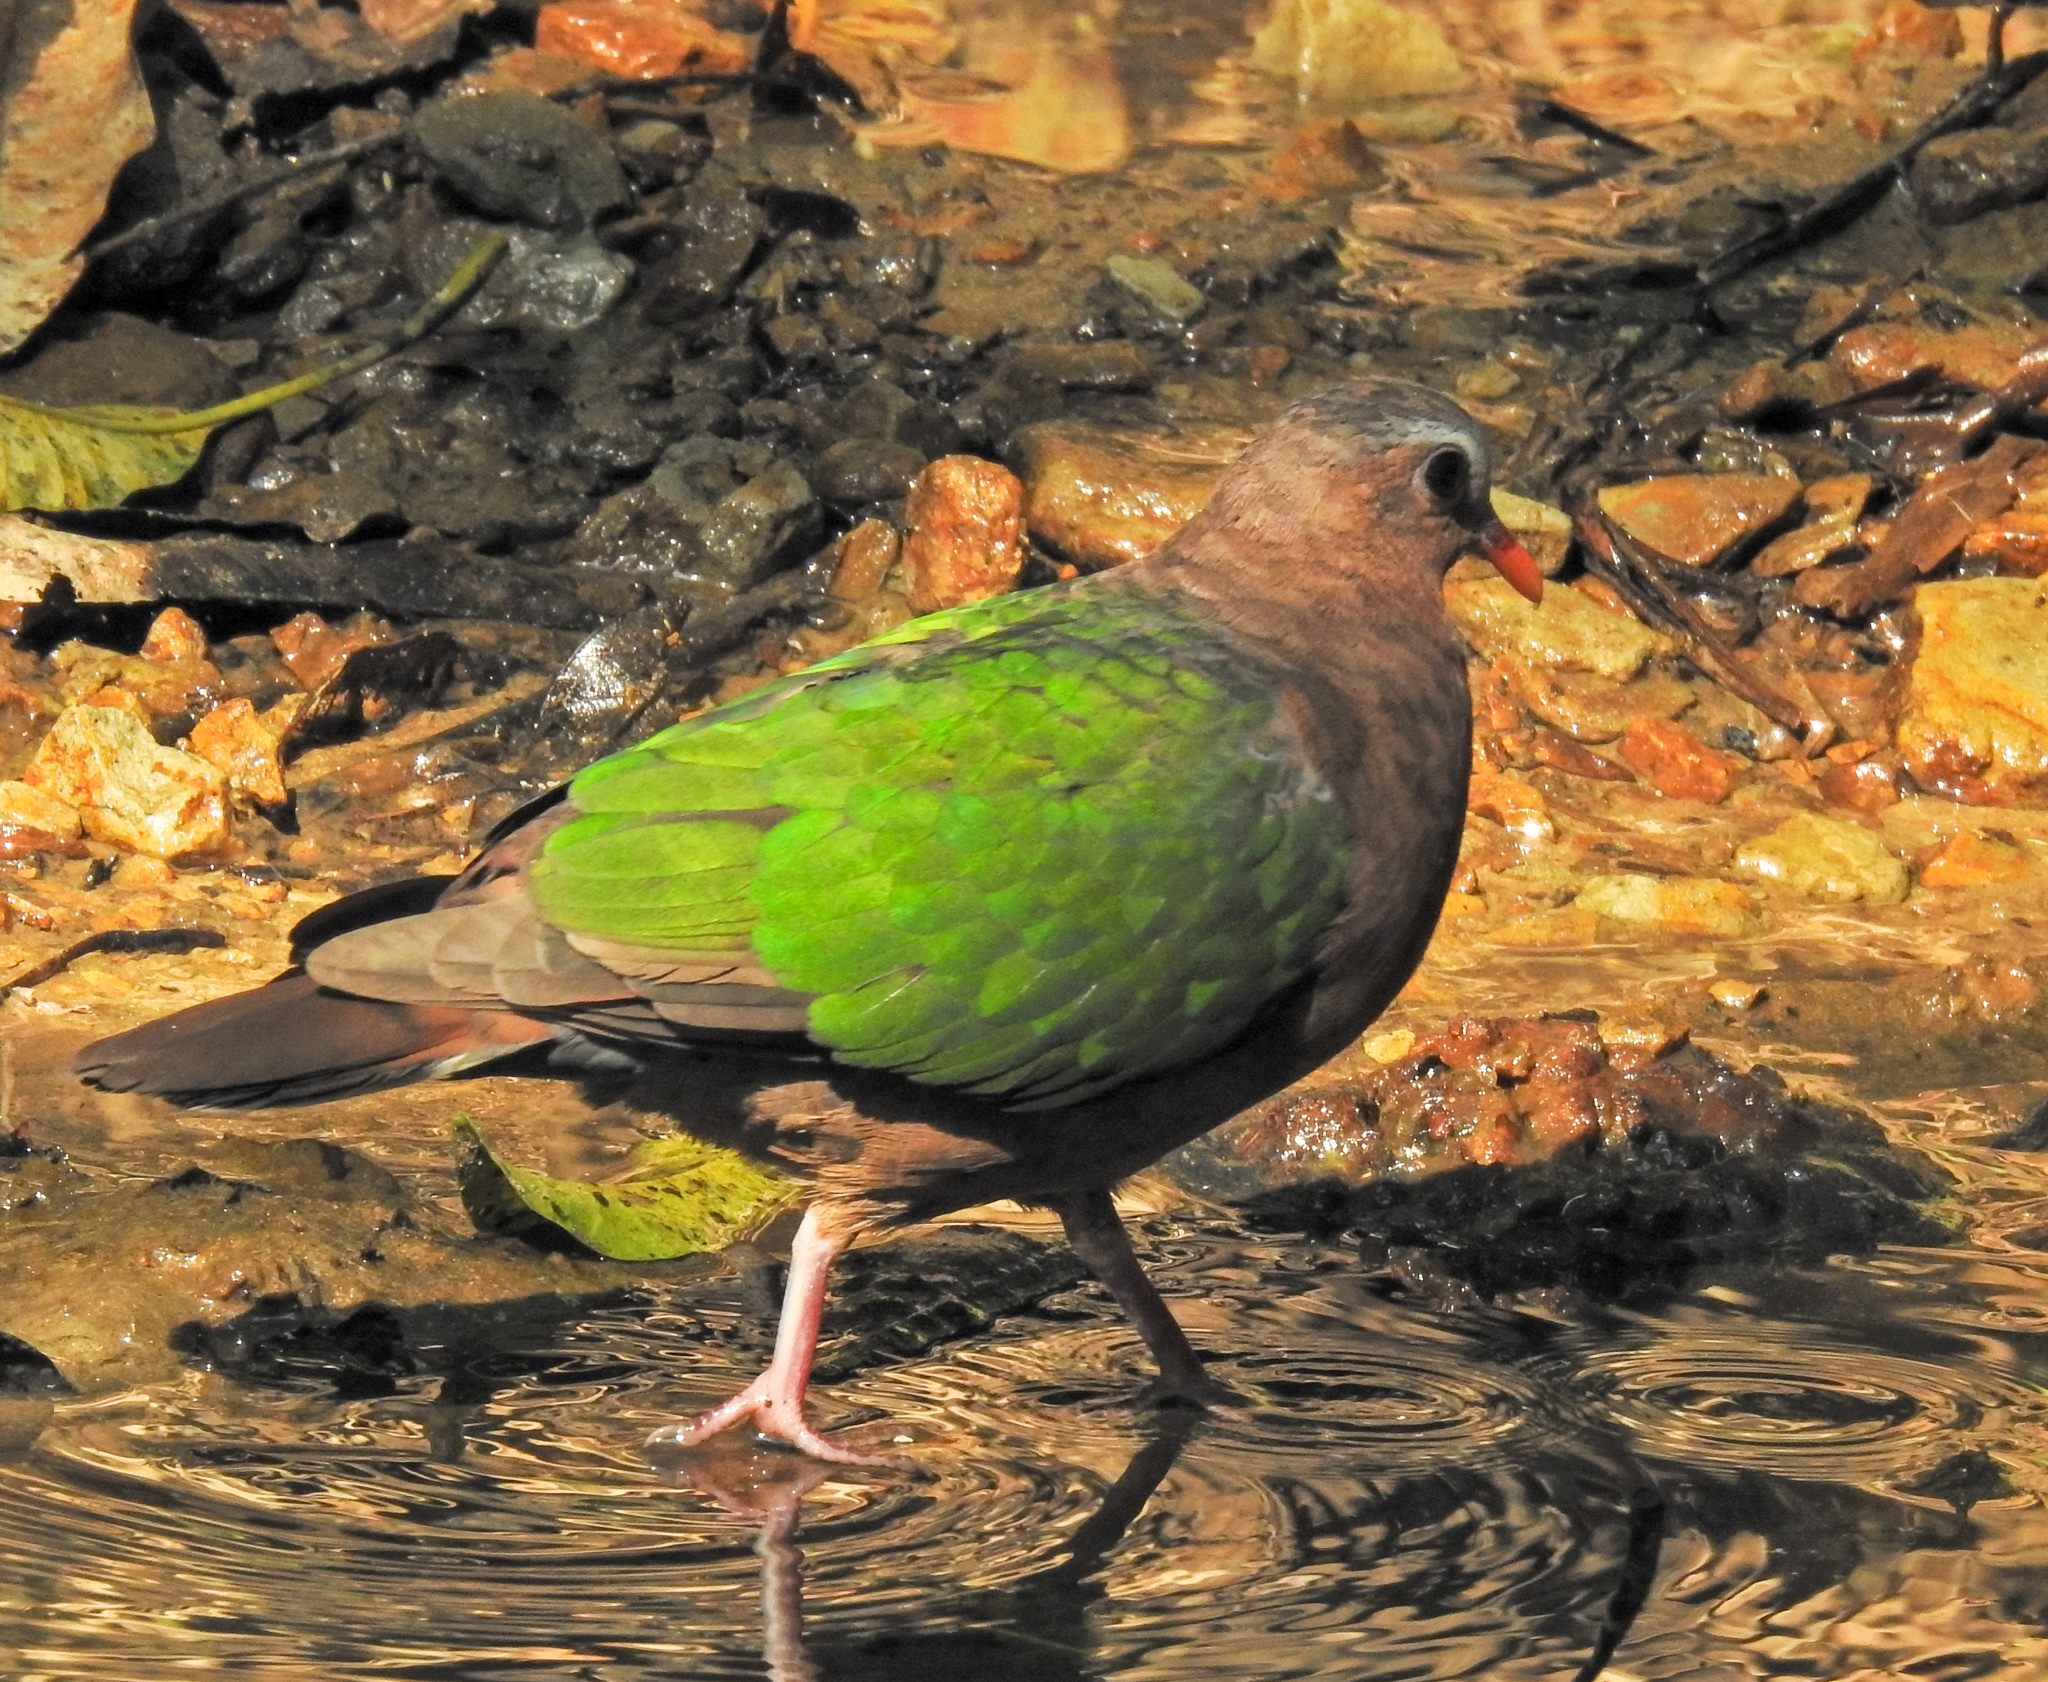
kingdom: Animalia
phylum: Chordata
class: Aves
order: Columbiformes
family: Columbidae
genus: Chalcophaps
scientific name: Chalcophaps indica
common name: Common emerald dove
